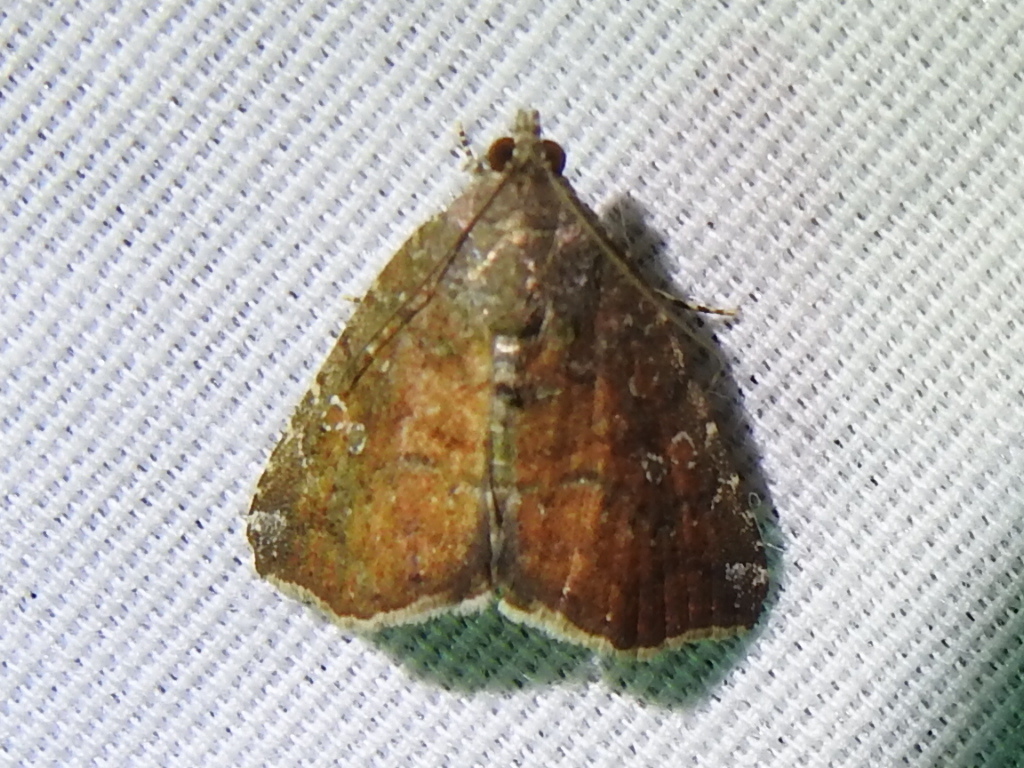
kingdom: Animalia
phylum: Arthropoda
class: Insecta
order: Lepidoptera
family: Noctuidae
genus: Amyna
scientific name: Amyna bullula
